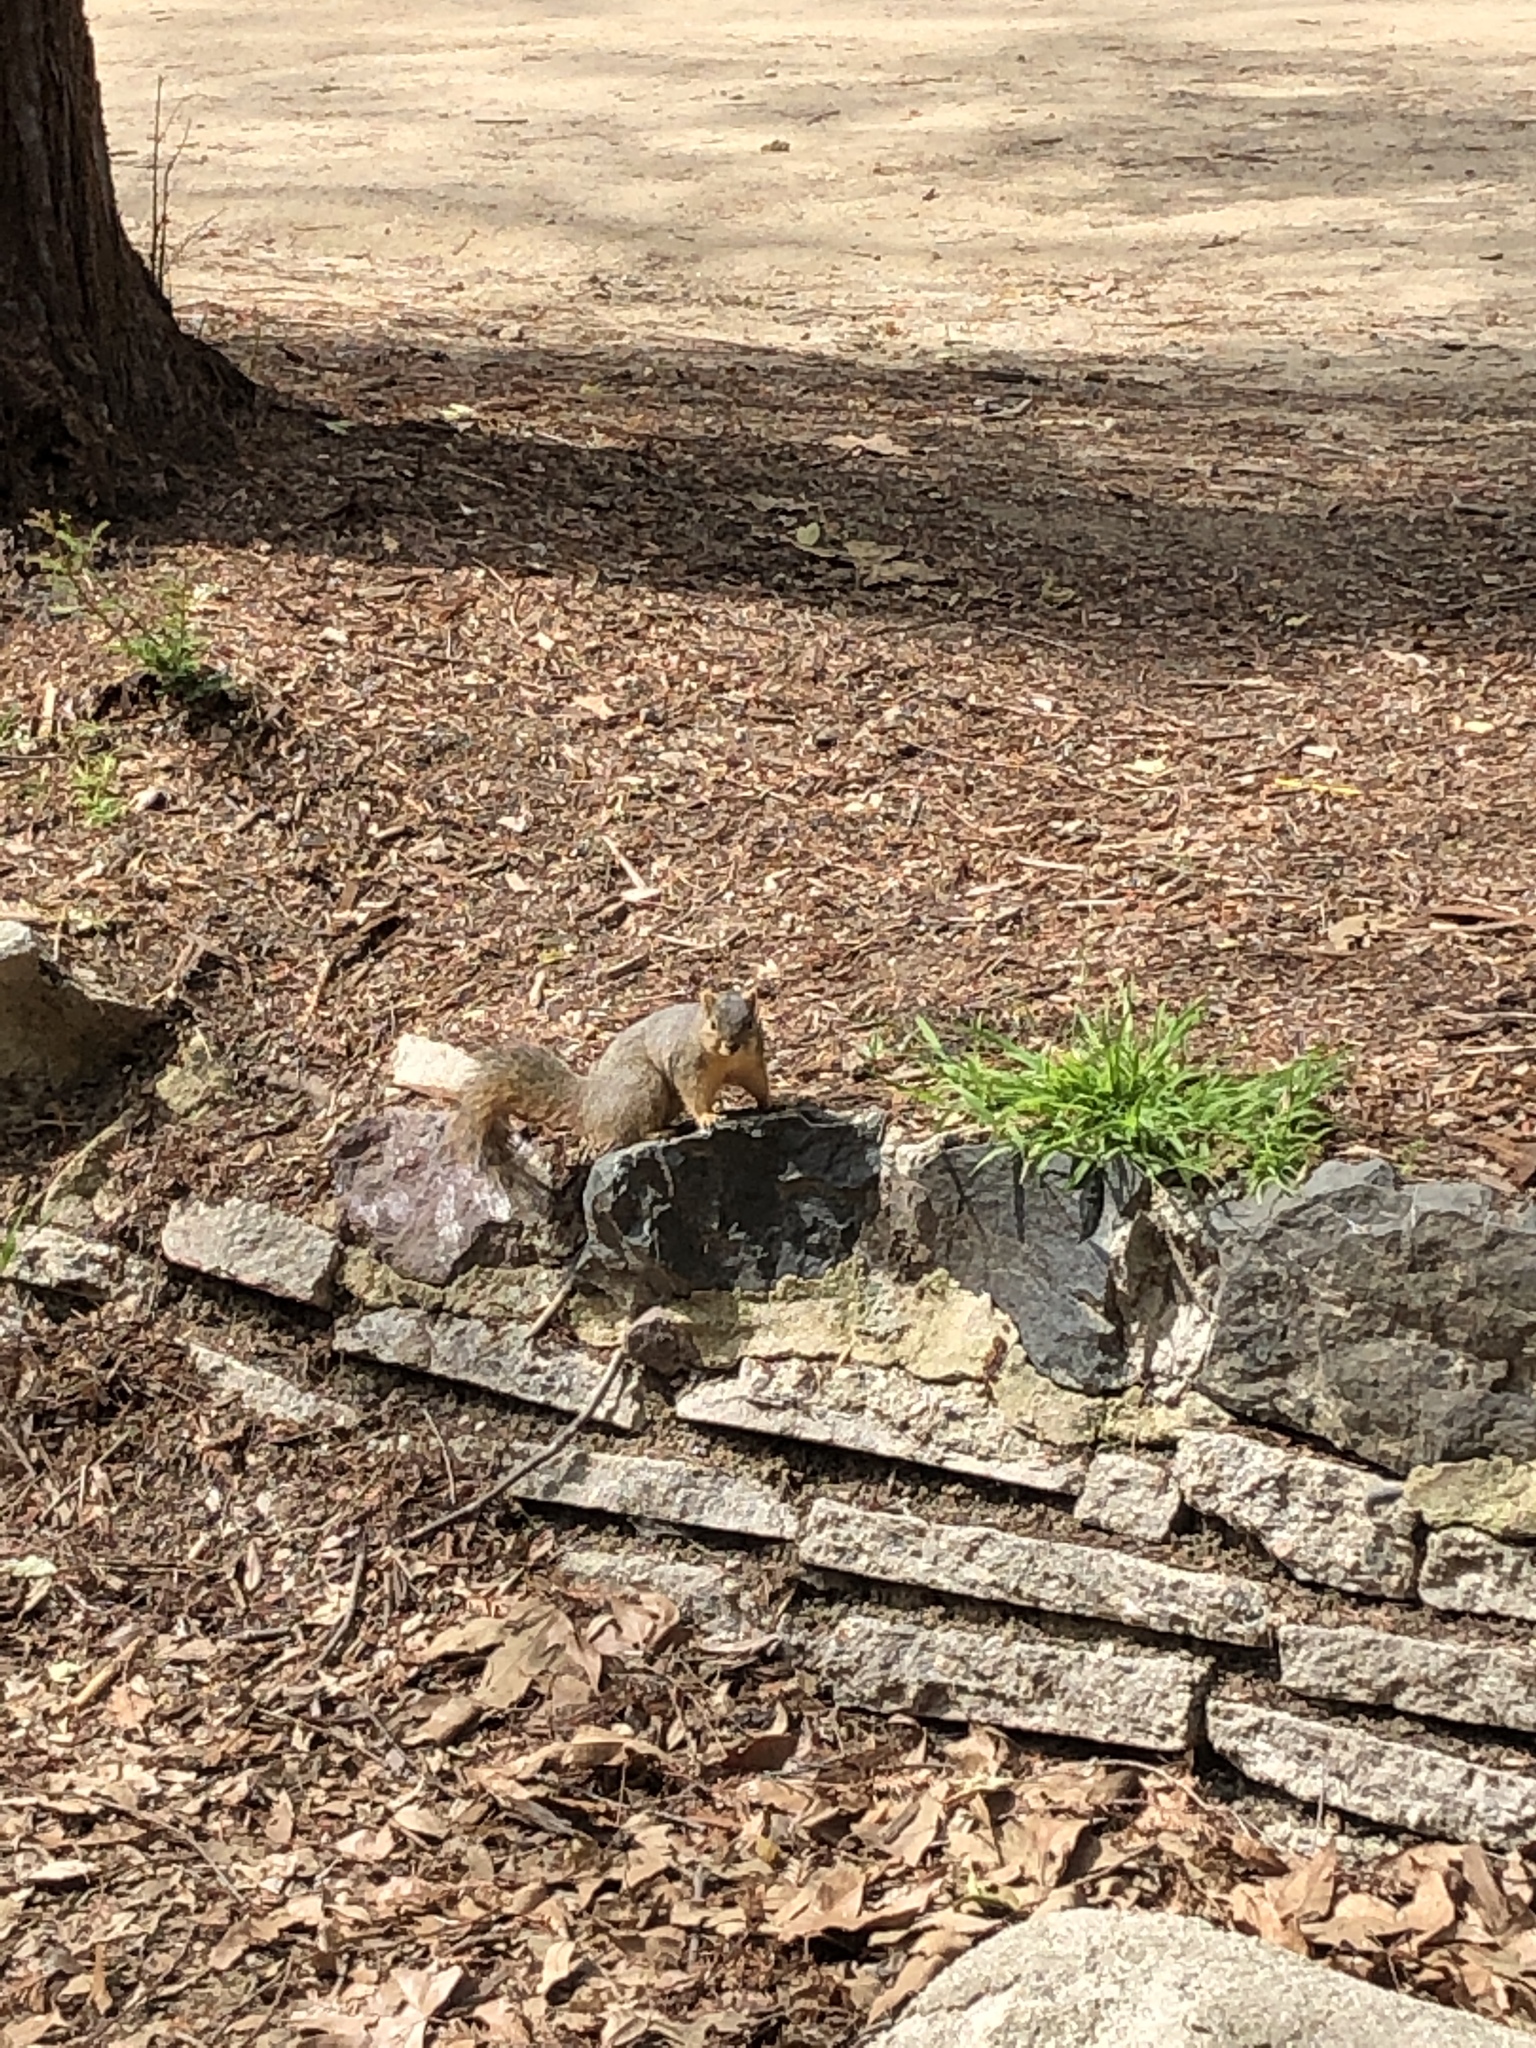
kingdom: Animalia
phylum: Chordata
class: Mammalia
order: Rodentia
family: Sciuridae
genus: Sciurus
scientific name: Sciurus niger
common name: Fox squirrel
